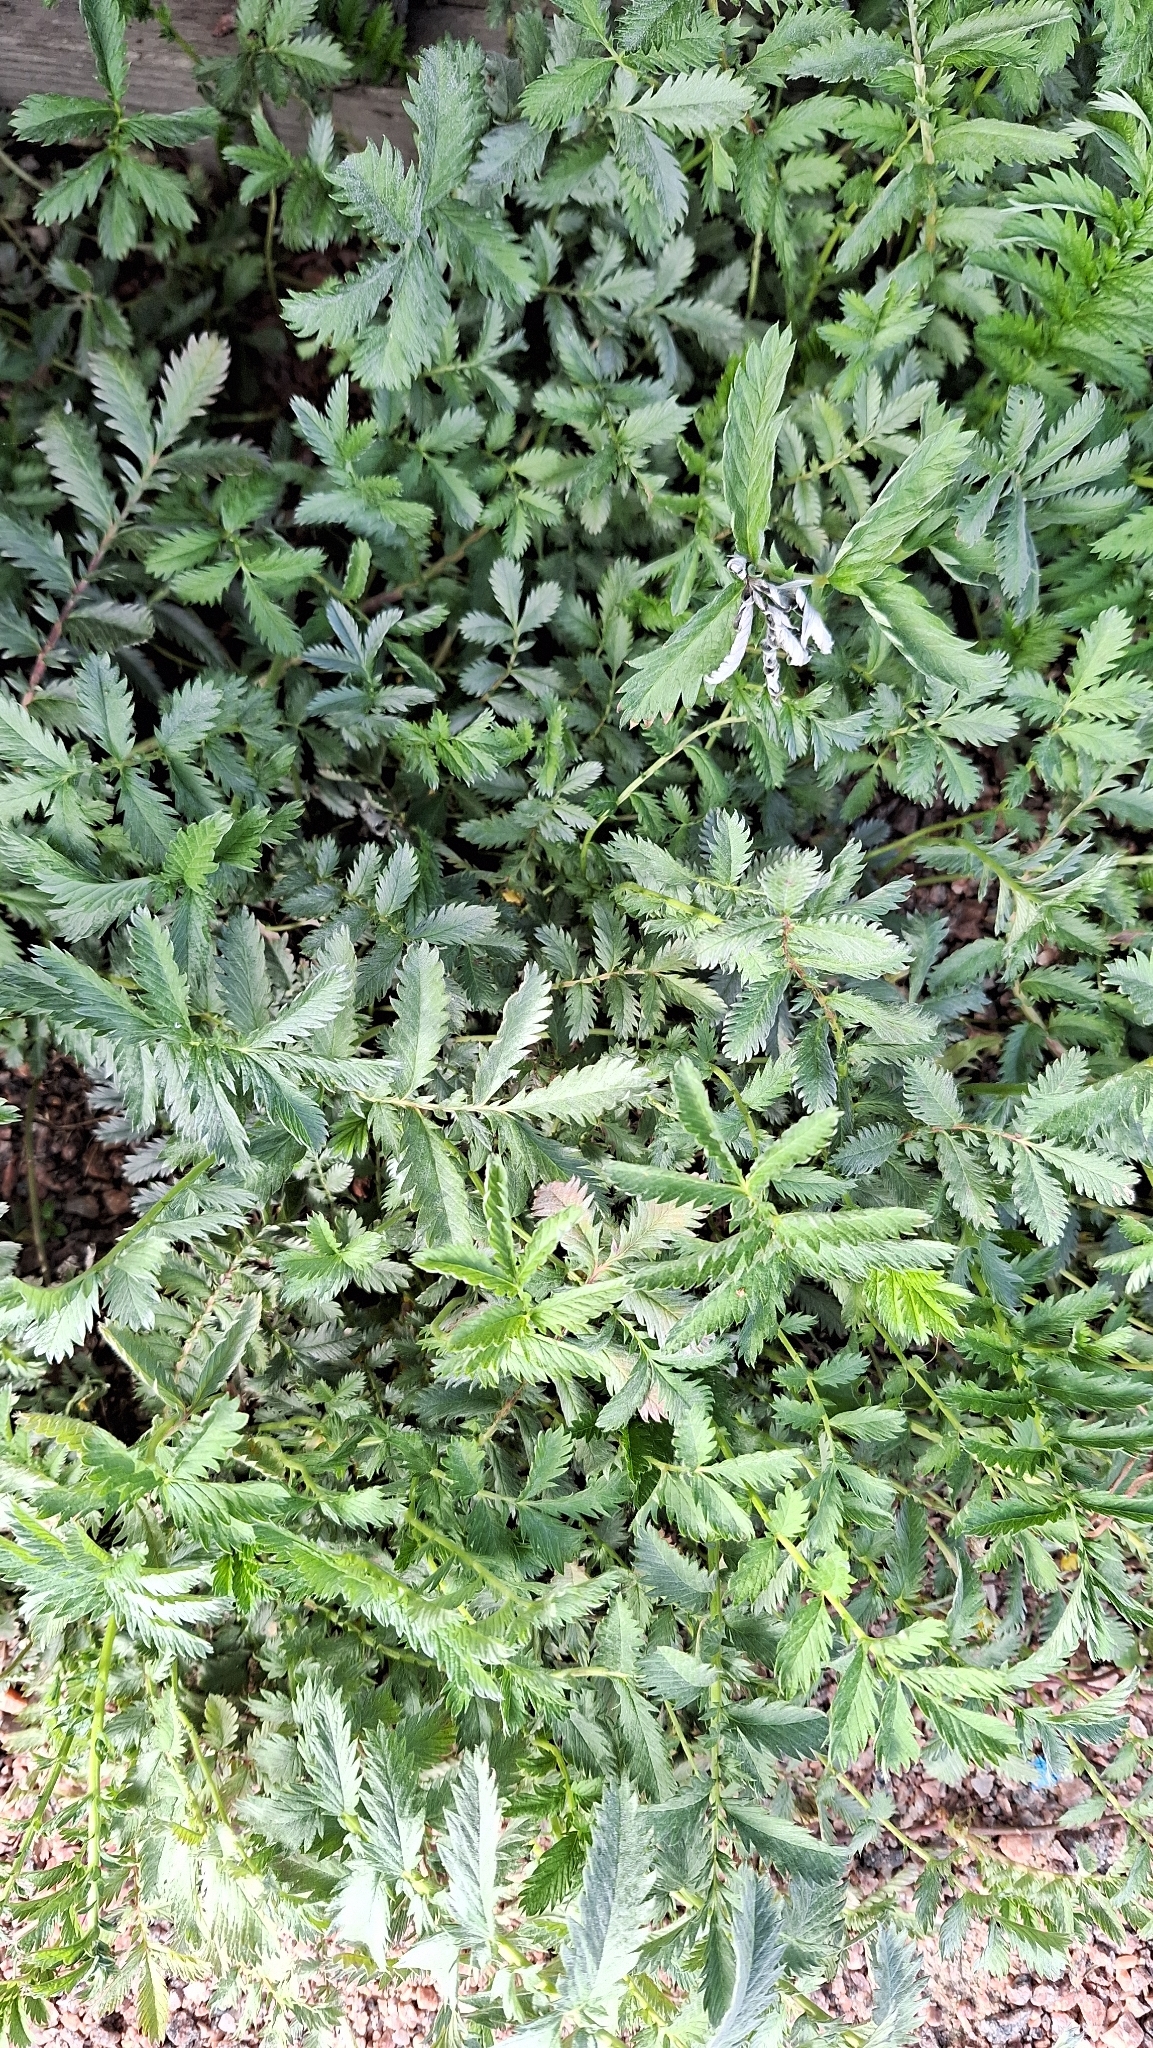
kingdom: Plantae
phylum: Tracheophyta
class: Magnoliopsida
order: Rosales
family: Rosaceae
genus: Argentina
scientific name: Argentina anserina
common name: Common silverweed
